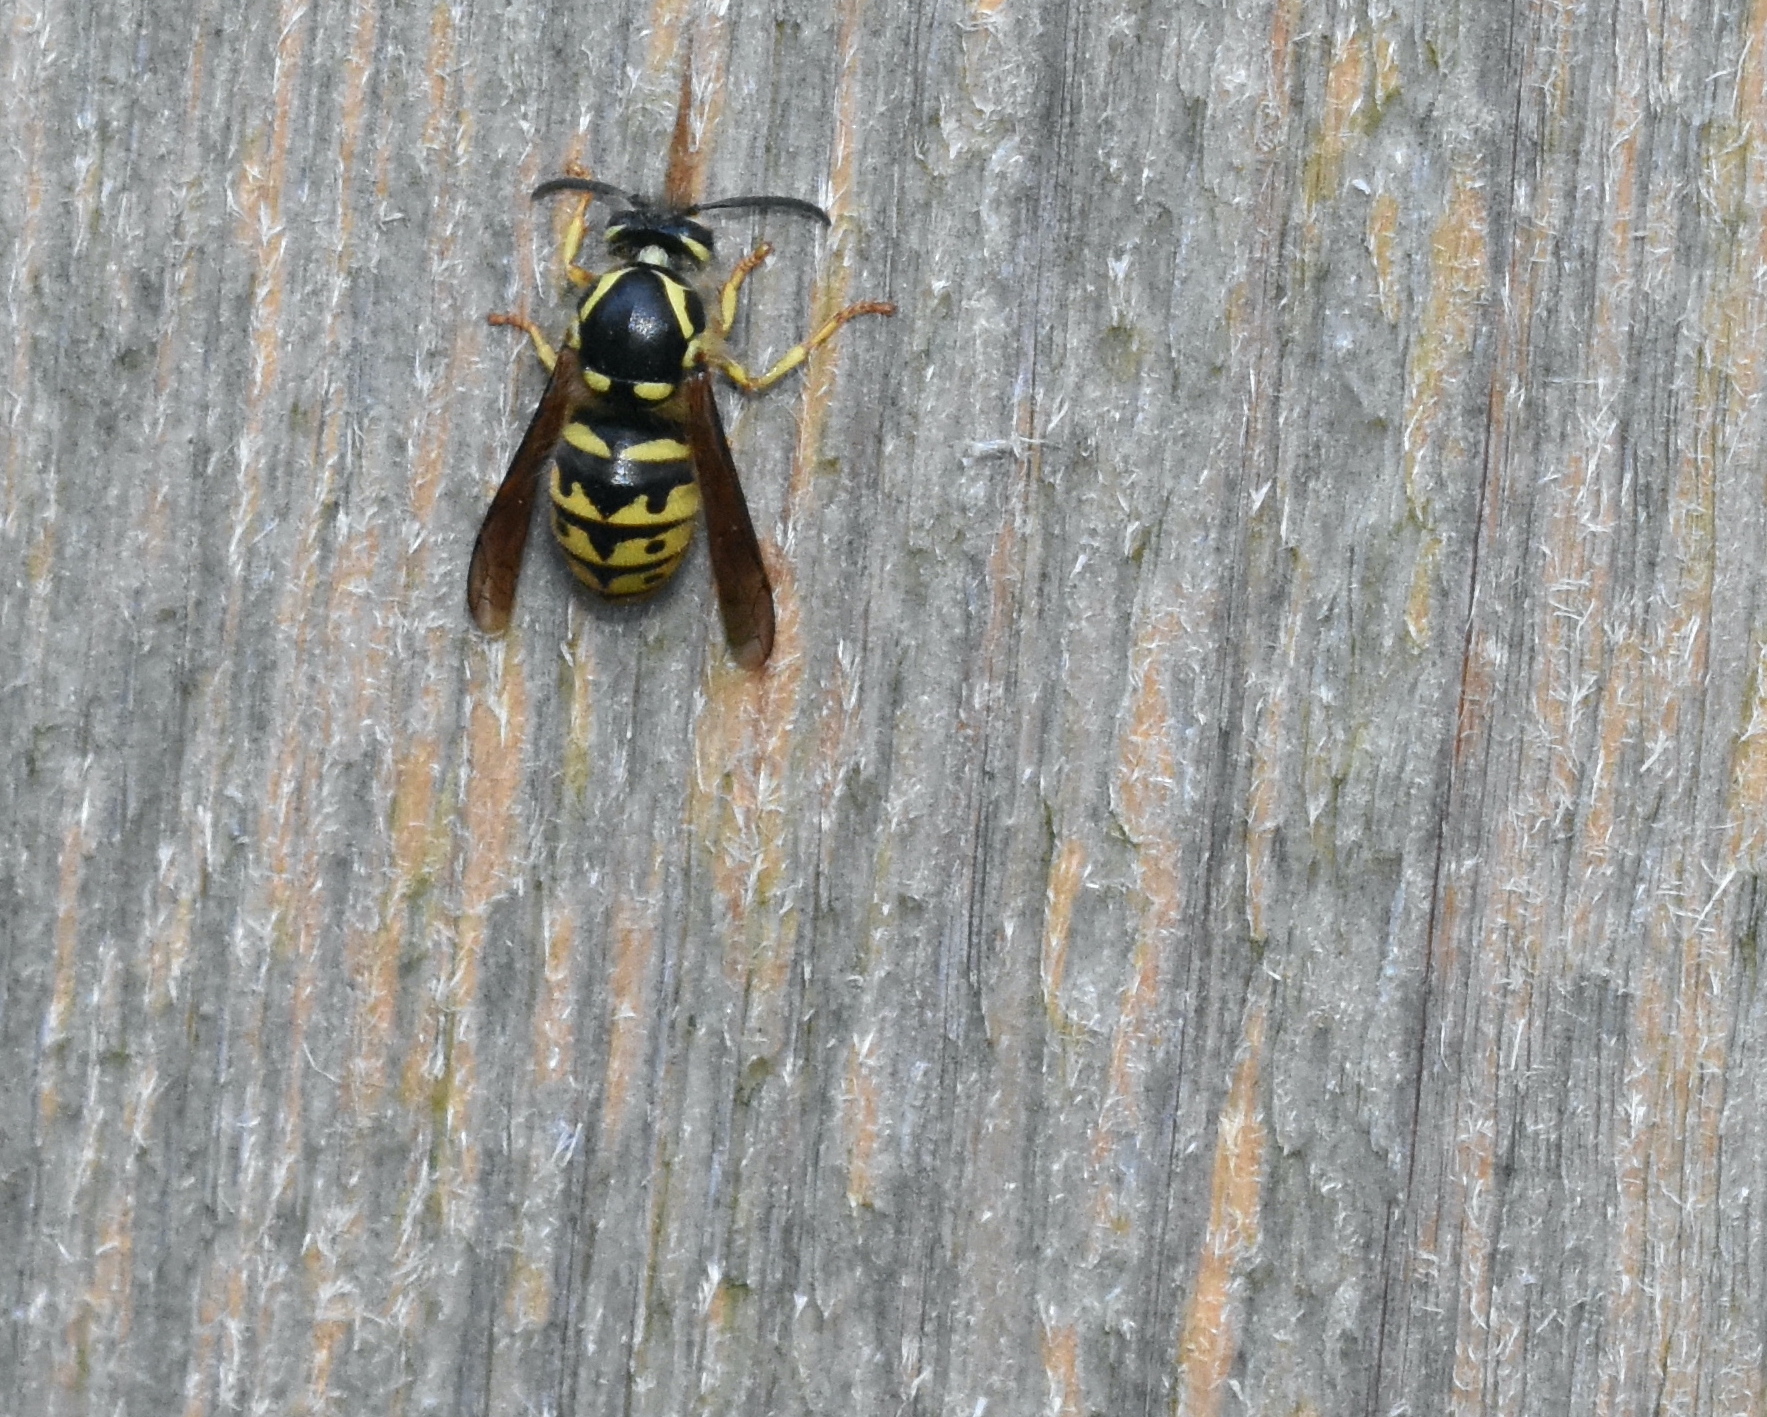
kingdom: Animalia
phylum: Arthropoda
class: Insecta
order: Hymenoptera
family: Vespidae
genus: Dolichovespula
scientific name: Dolichovespula arenaria
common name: Aerial yellowjacket
